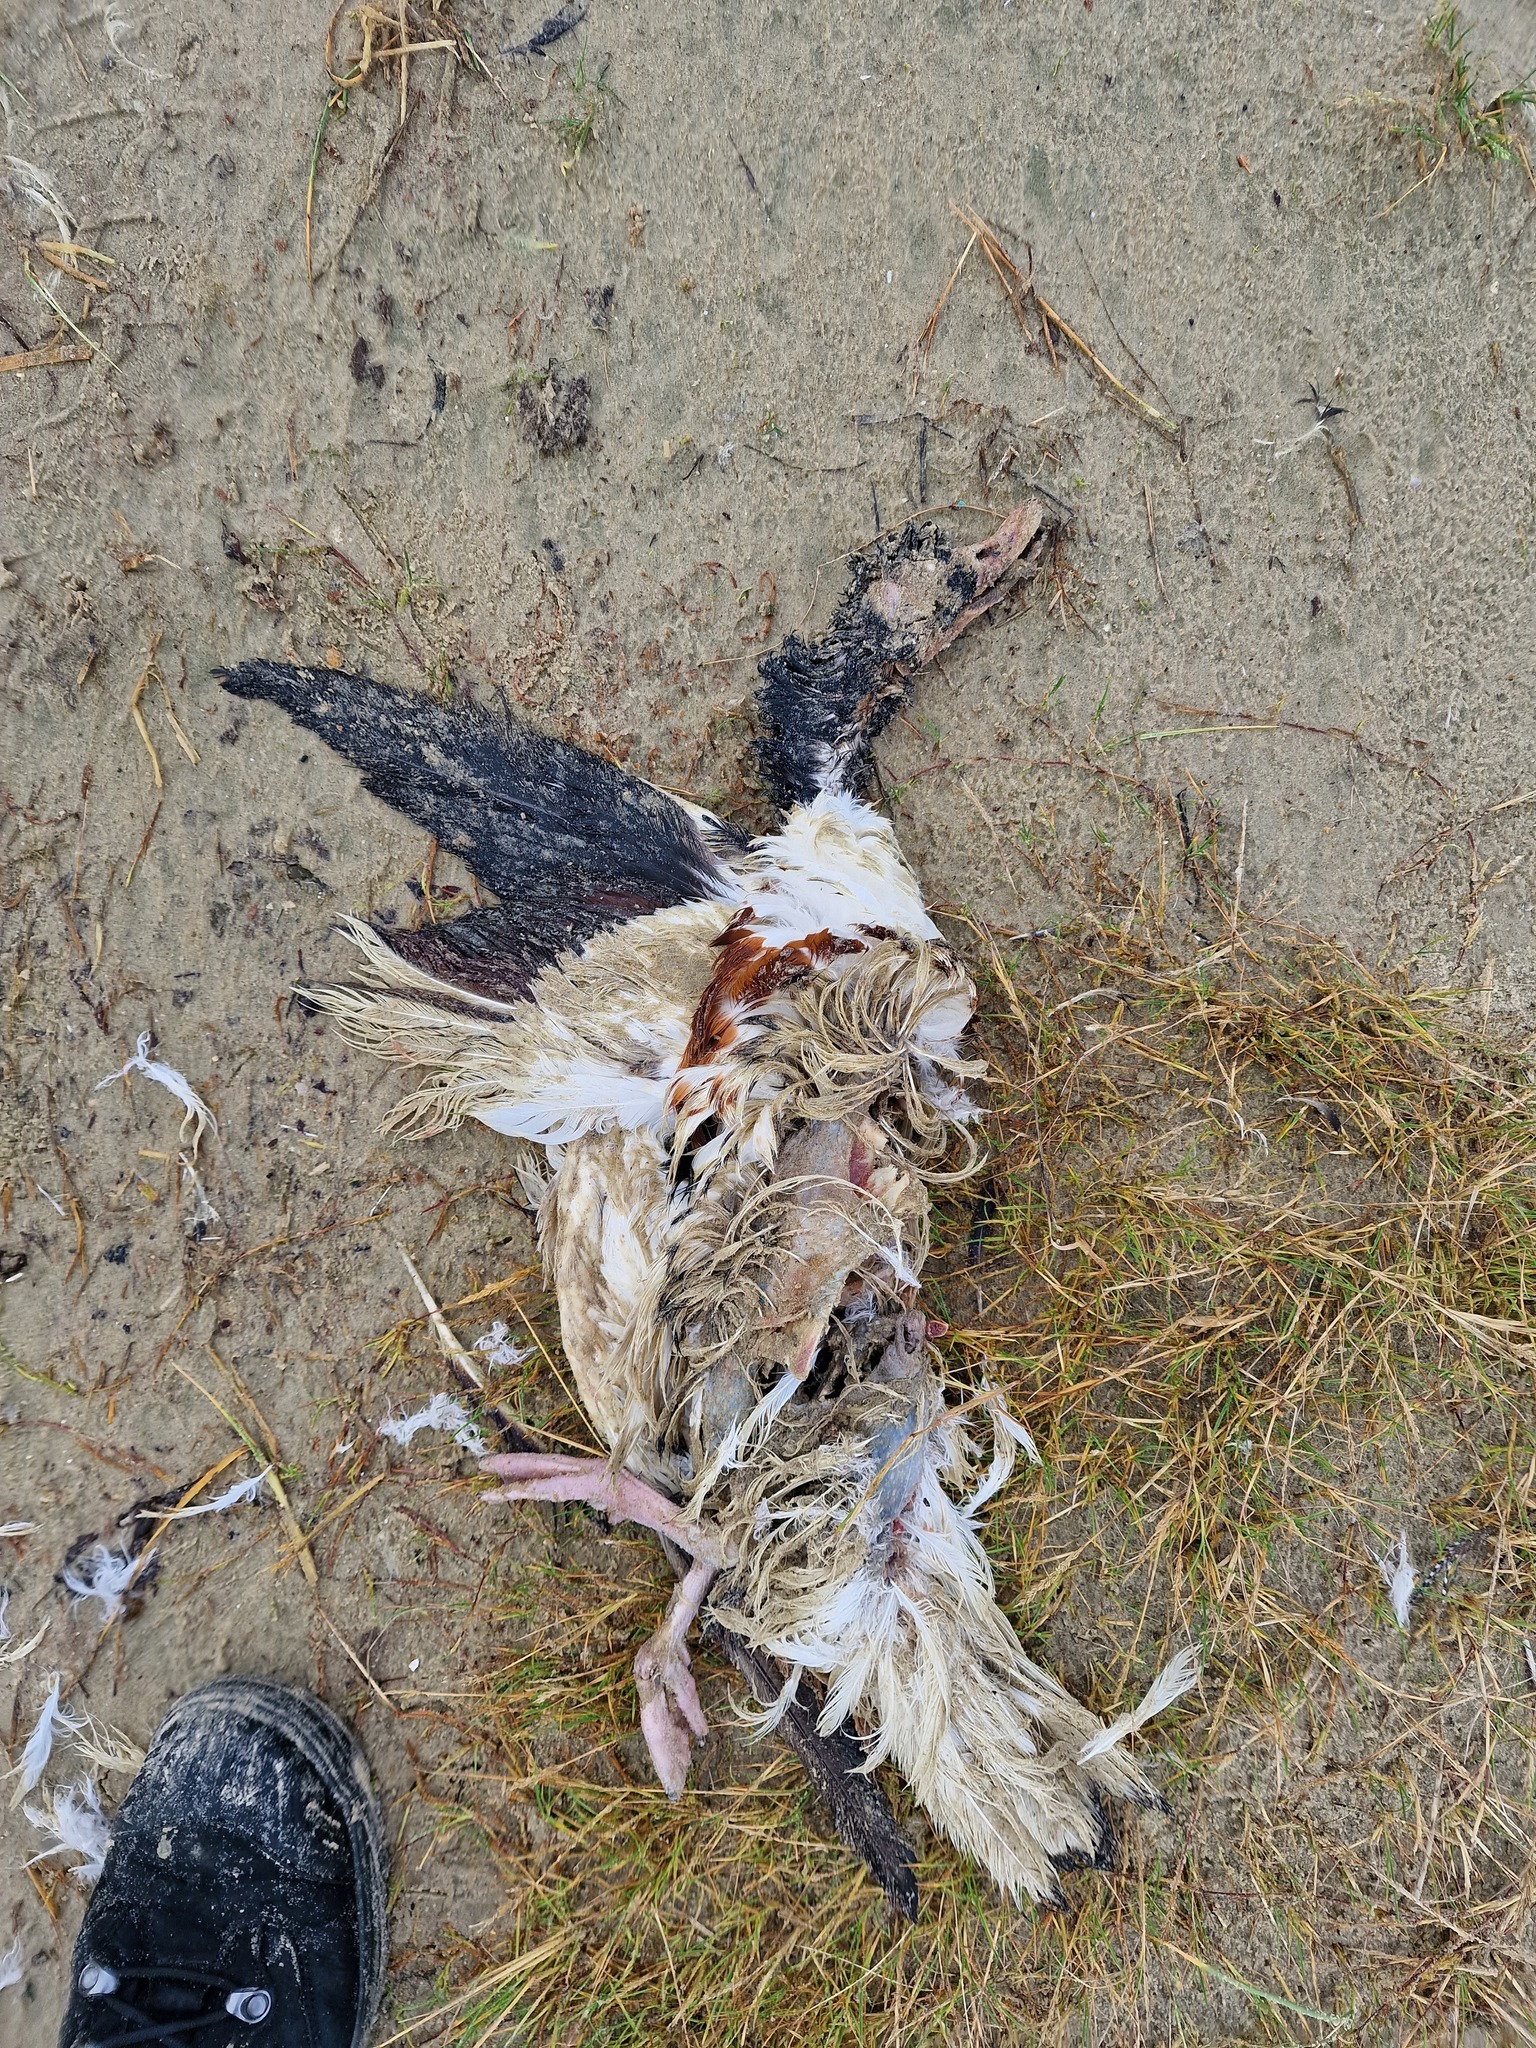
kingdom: Animalia
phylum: Chordata
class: Aves
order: Anseriformes
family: Anatidae
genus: Tadorna
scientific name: Tadorna tadorna
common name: Common shelduck
